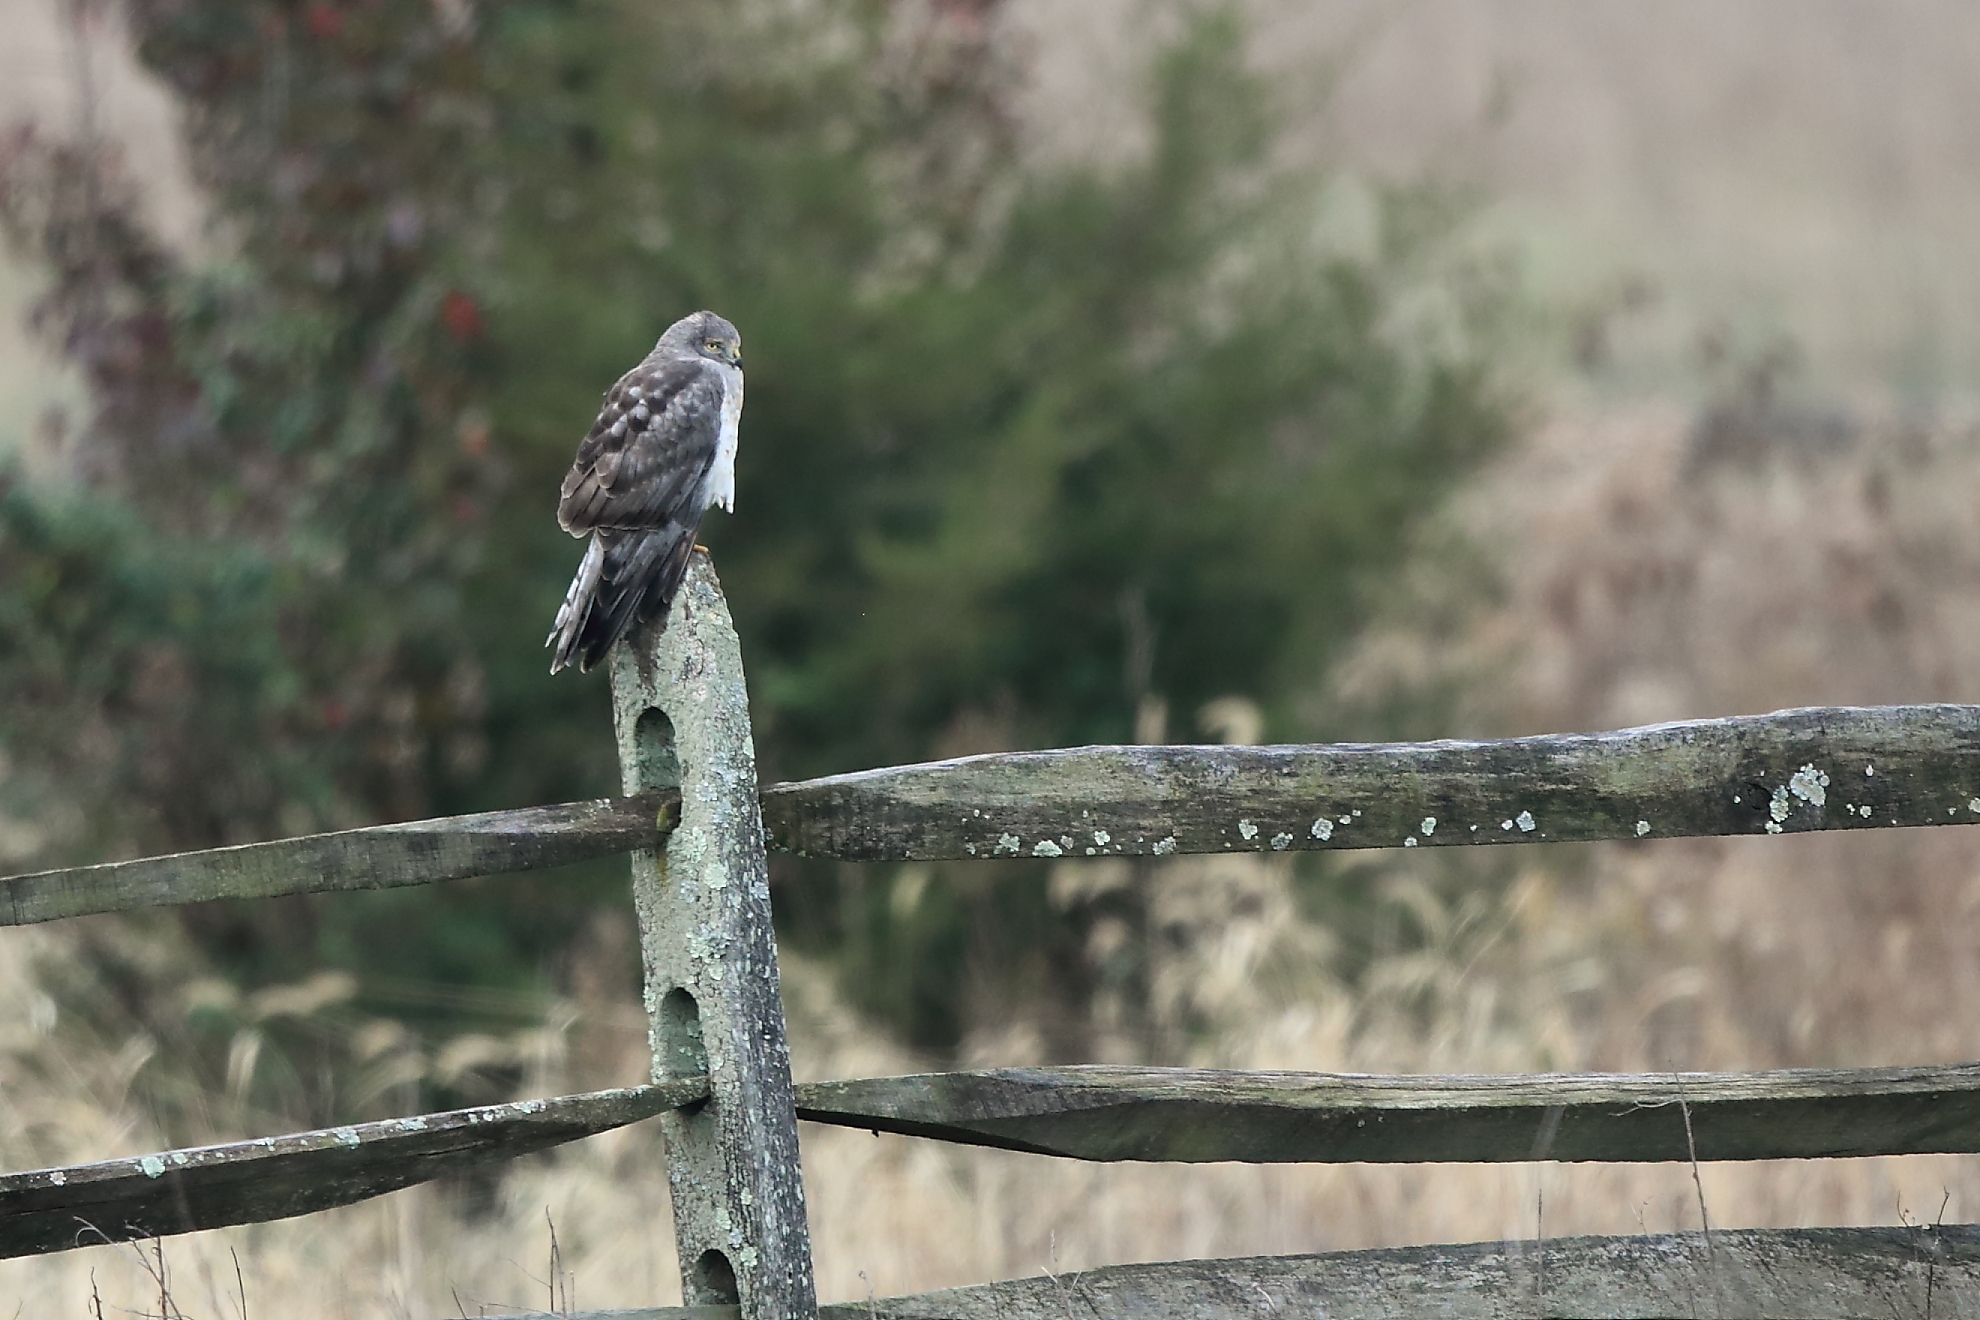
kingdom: Animalia
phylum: Chordata
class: Aves
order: Accipitriformes
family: Accipitridae
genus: Circus
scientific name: Circus cyaneus
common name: Hen harrier
